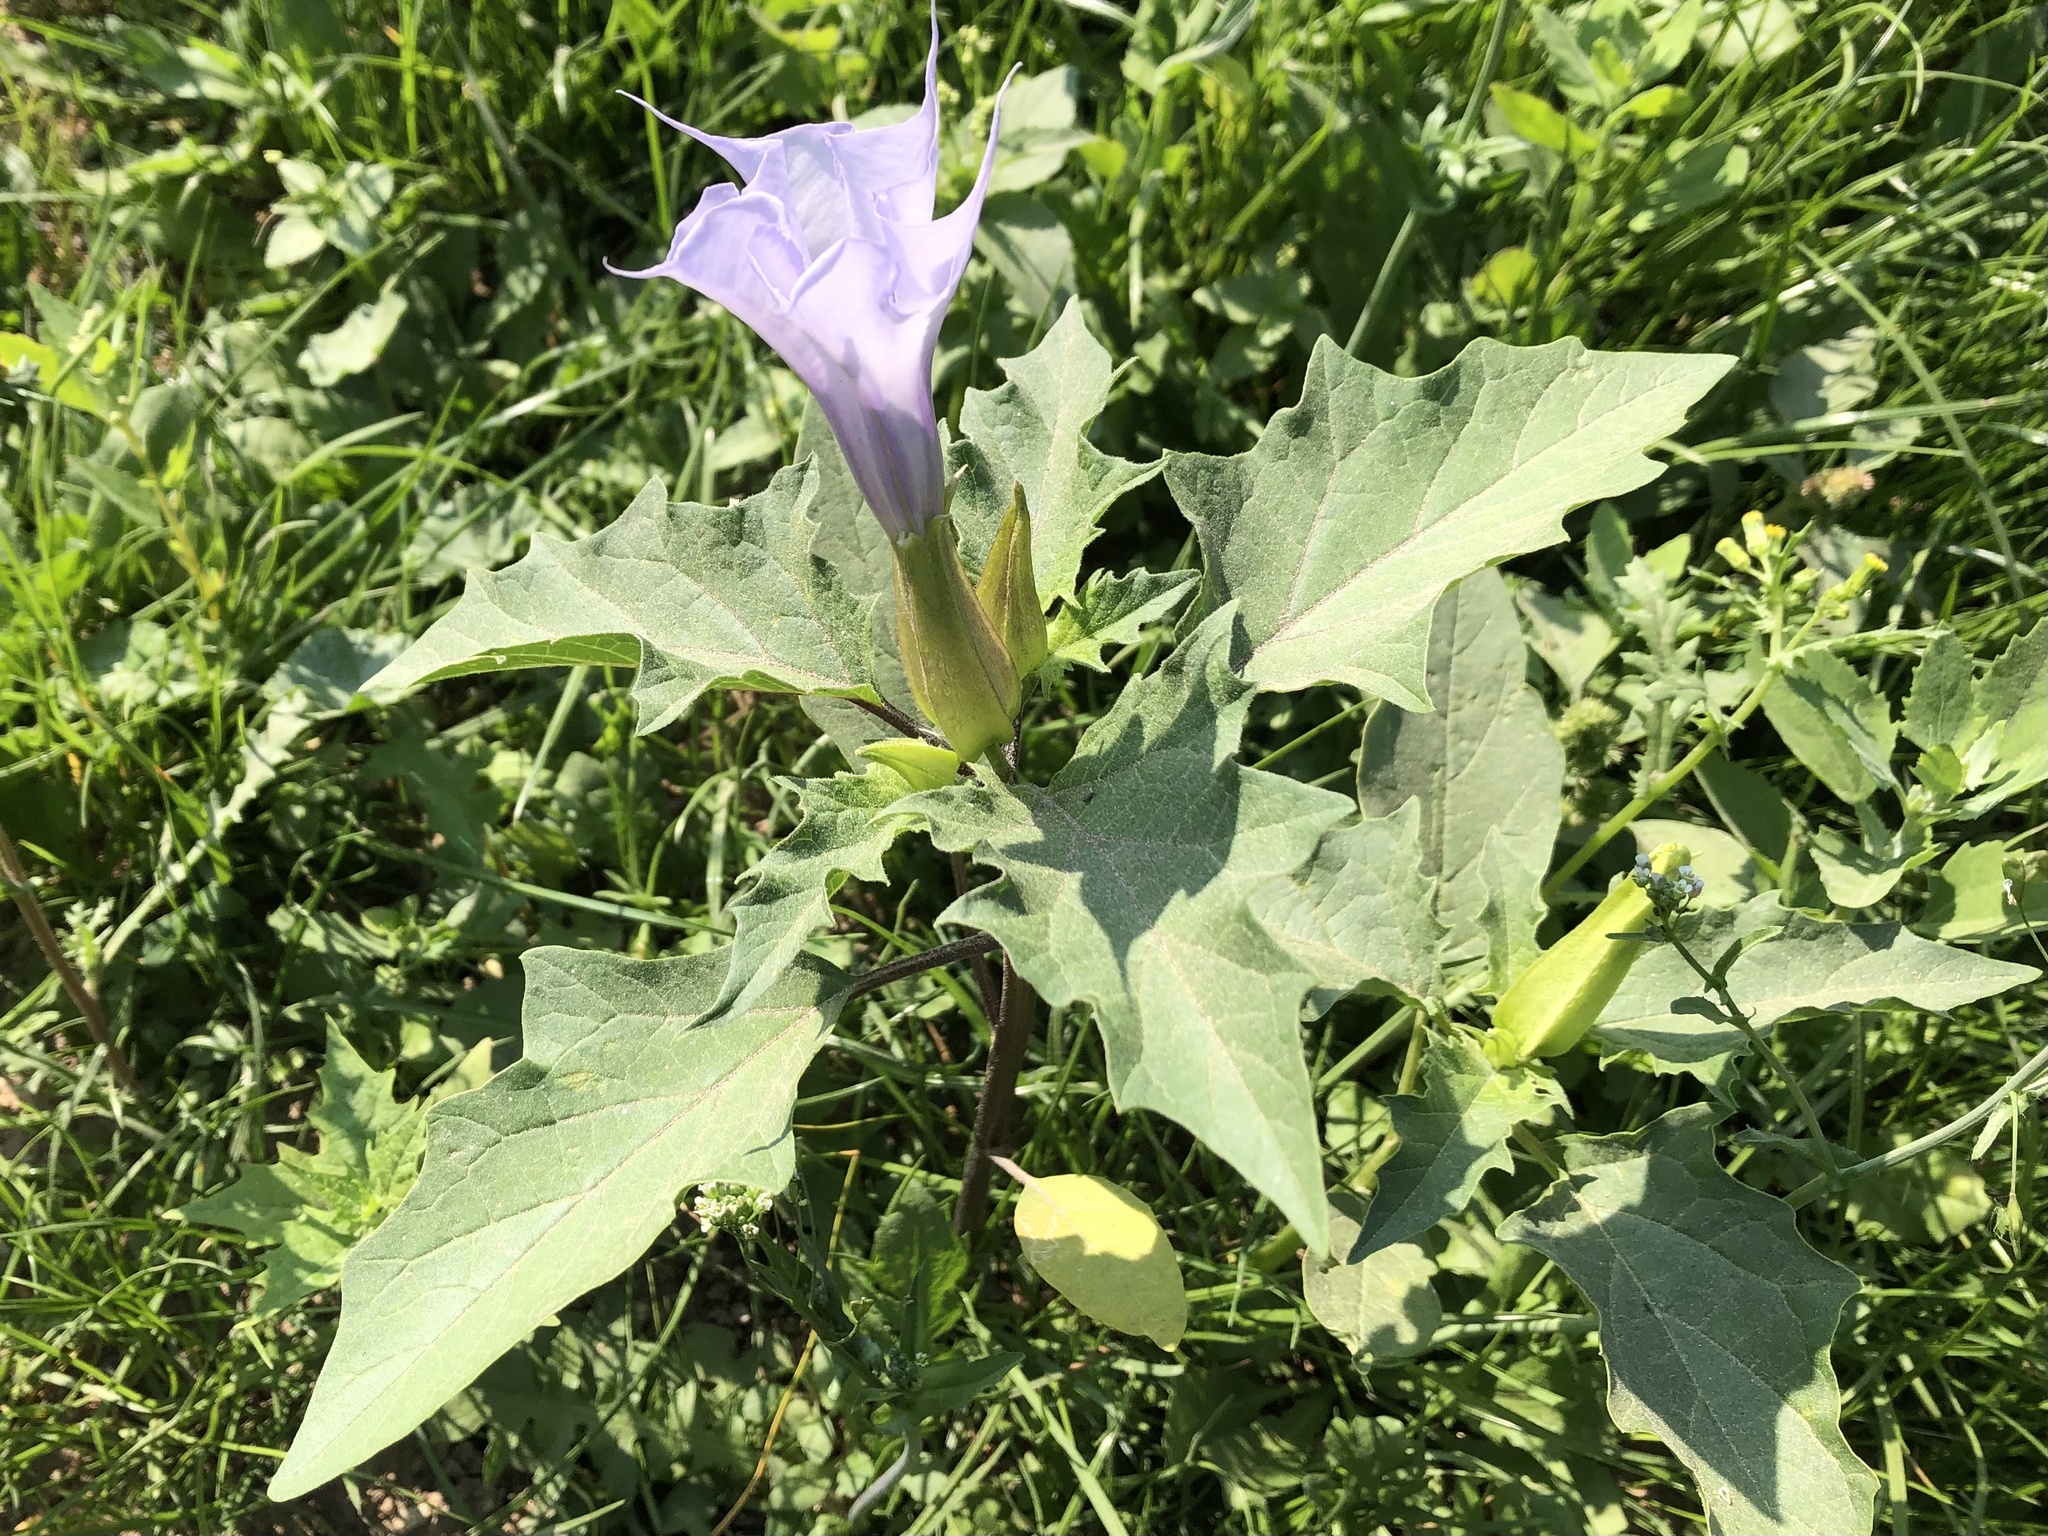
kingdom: Plantae
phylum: Tracheophyta
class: Magnoliopsida
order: Solanales
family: Solanaceae
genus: Datura
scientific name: Datura stramonium
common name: Thorn-apple
